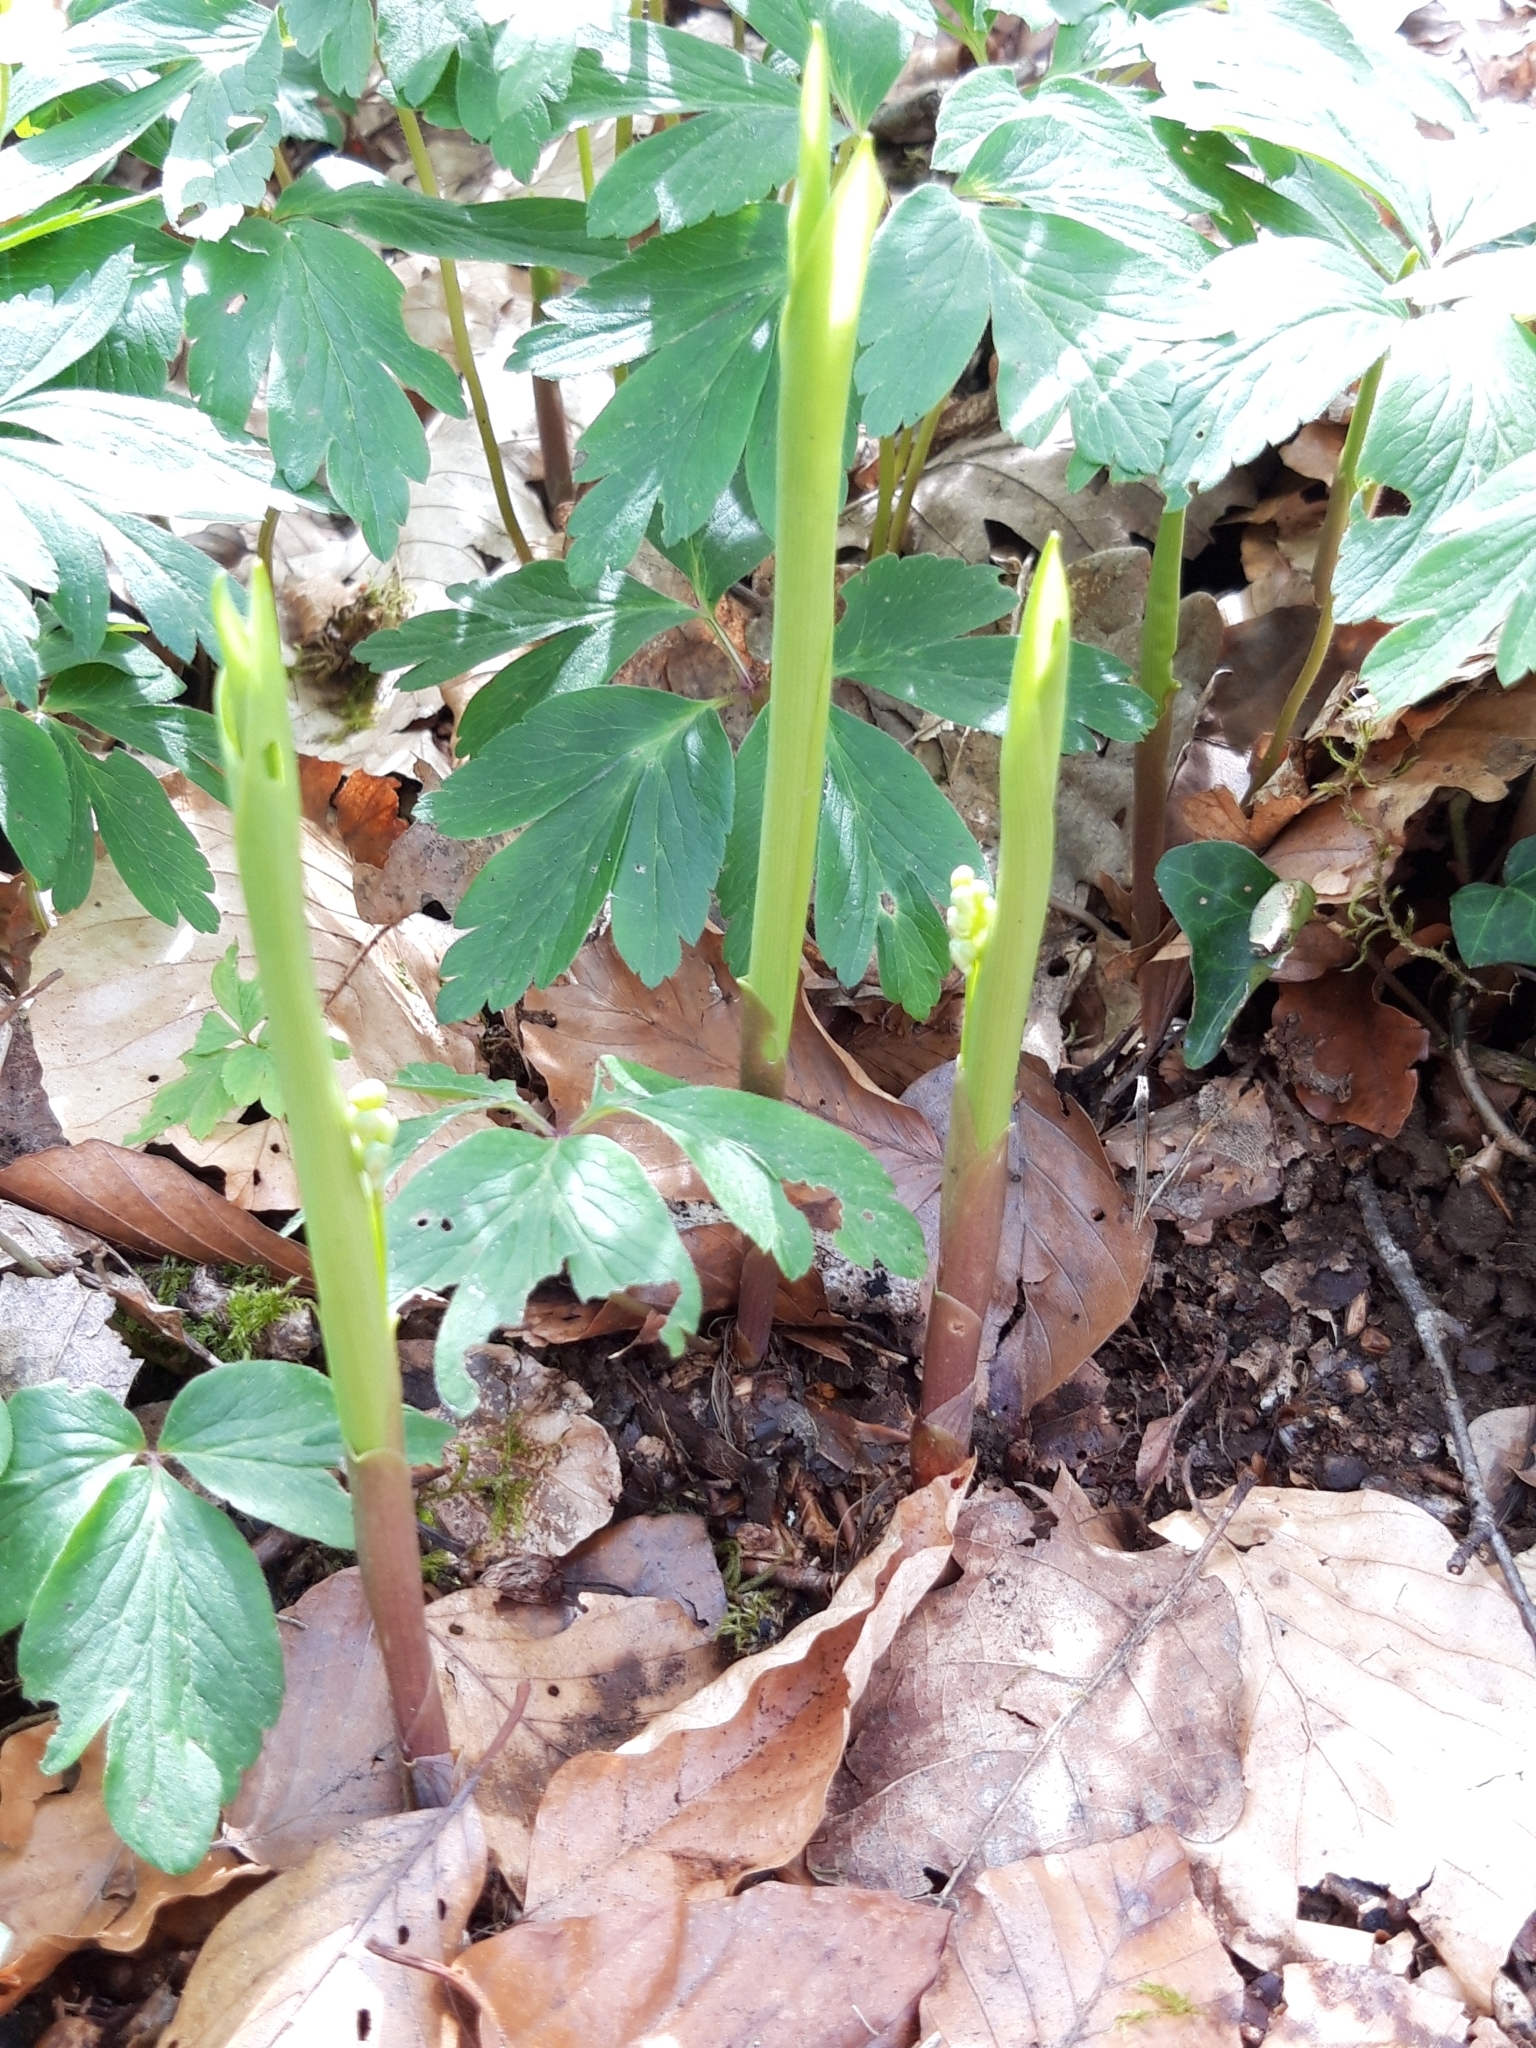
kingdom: Plantae
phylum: Tracheophyta
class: Liliopsida
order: Asparagales
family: Asparagaceae
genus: Convallaria
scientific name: Convallaria majalis
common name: Lily-of-the-valley
